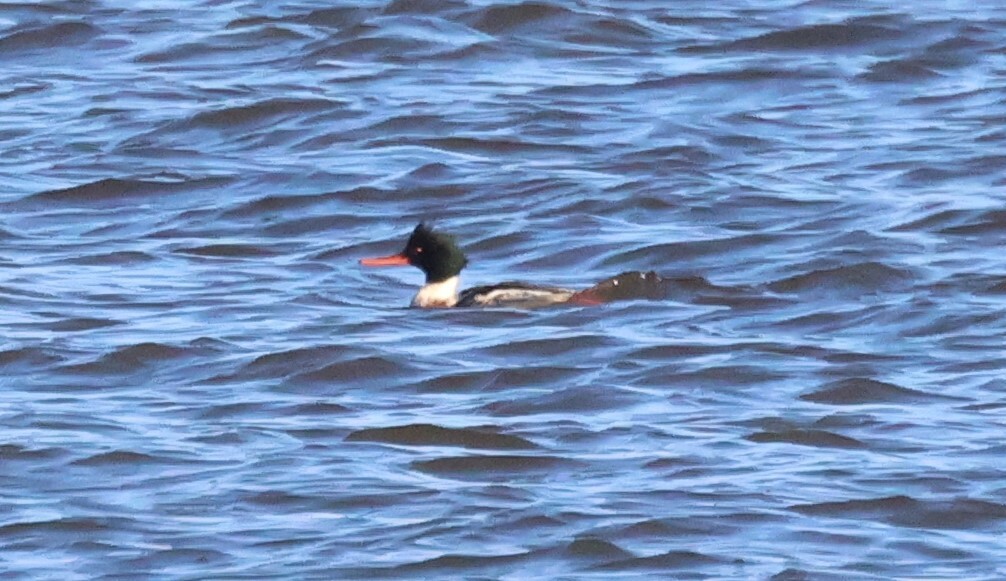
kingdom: Animalia
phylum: Chordata
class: Aves
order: Anseriformes
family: Anatidae
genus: Mergus
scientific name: Mergus serrator
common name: Red-breasted merganser
